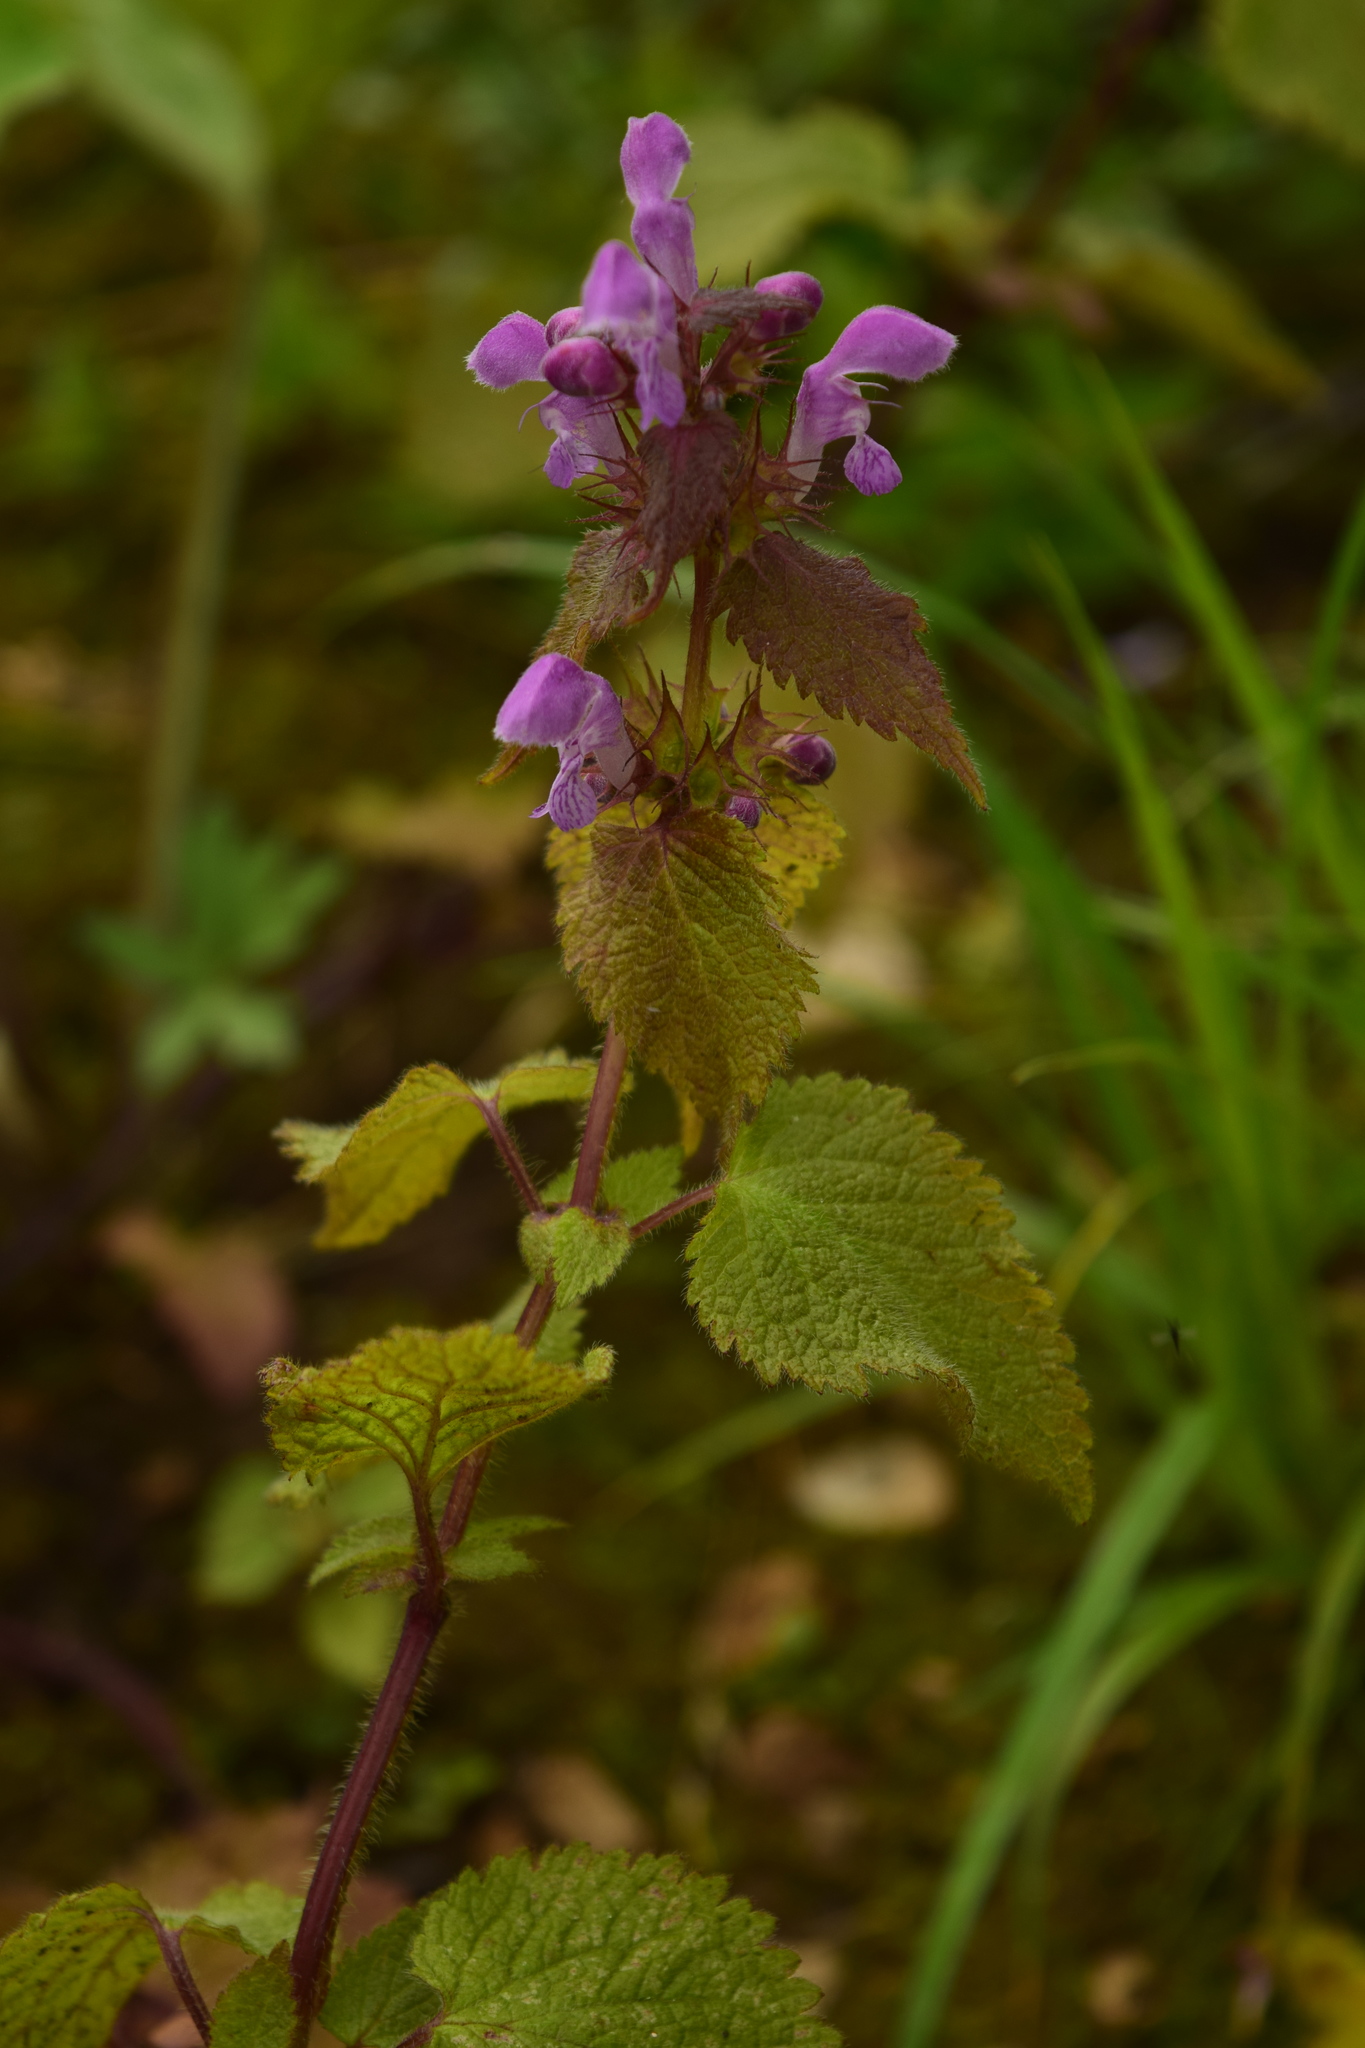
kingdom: Plantae
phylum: Tracheophyta
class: Magnoliopsida
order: Lamiales
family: Lamiaceae
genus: Lamium
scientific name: Lamium maculatum
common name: Spotted dead-nettle
